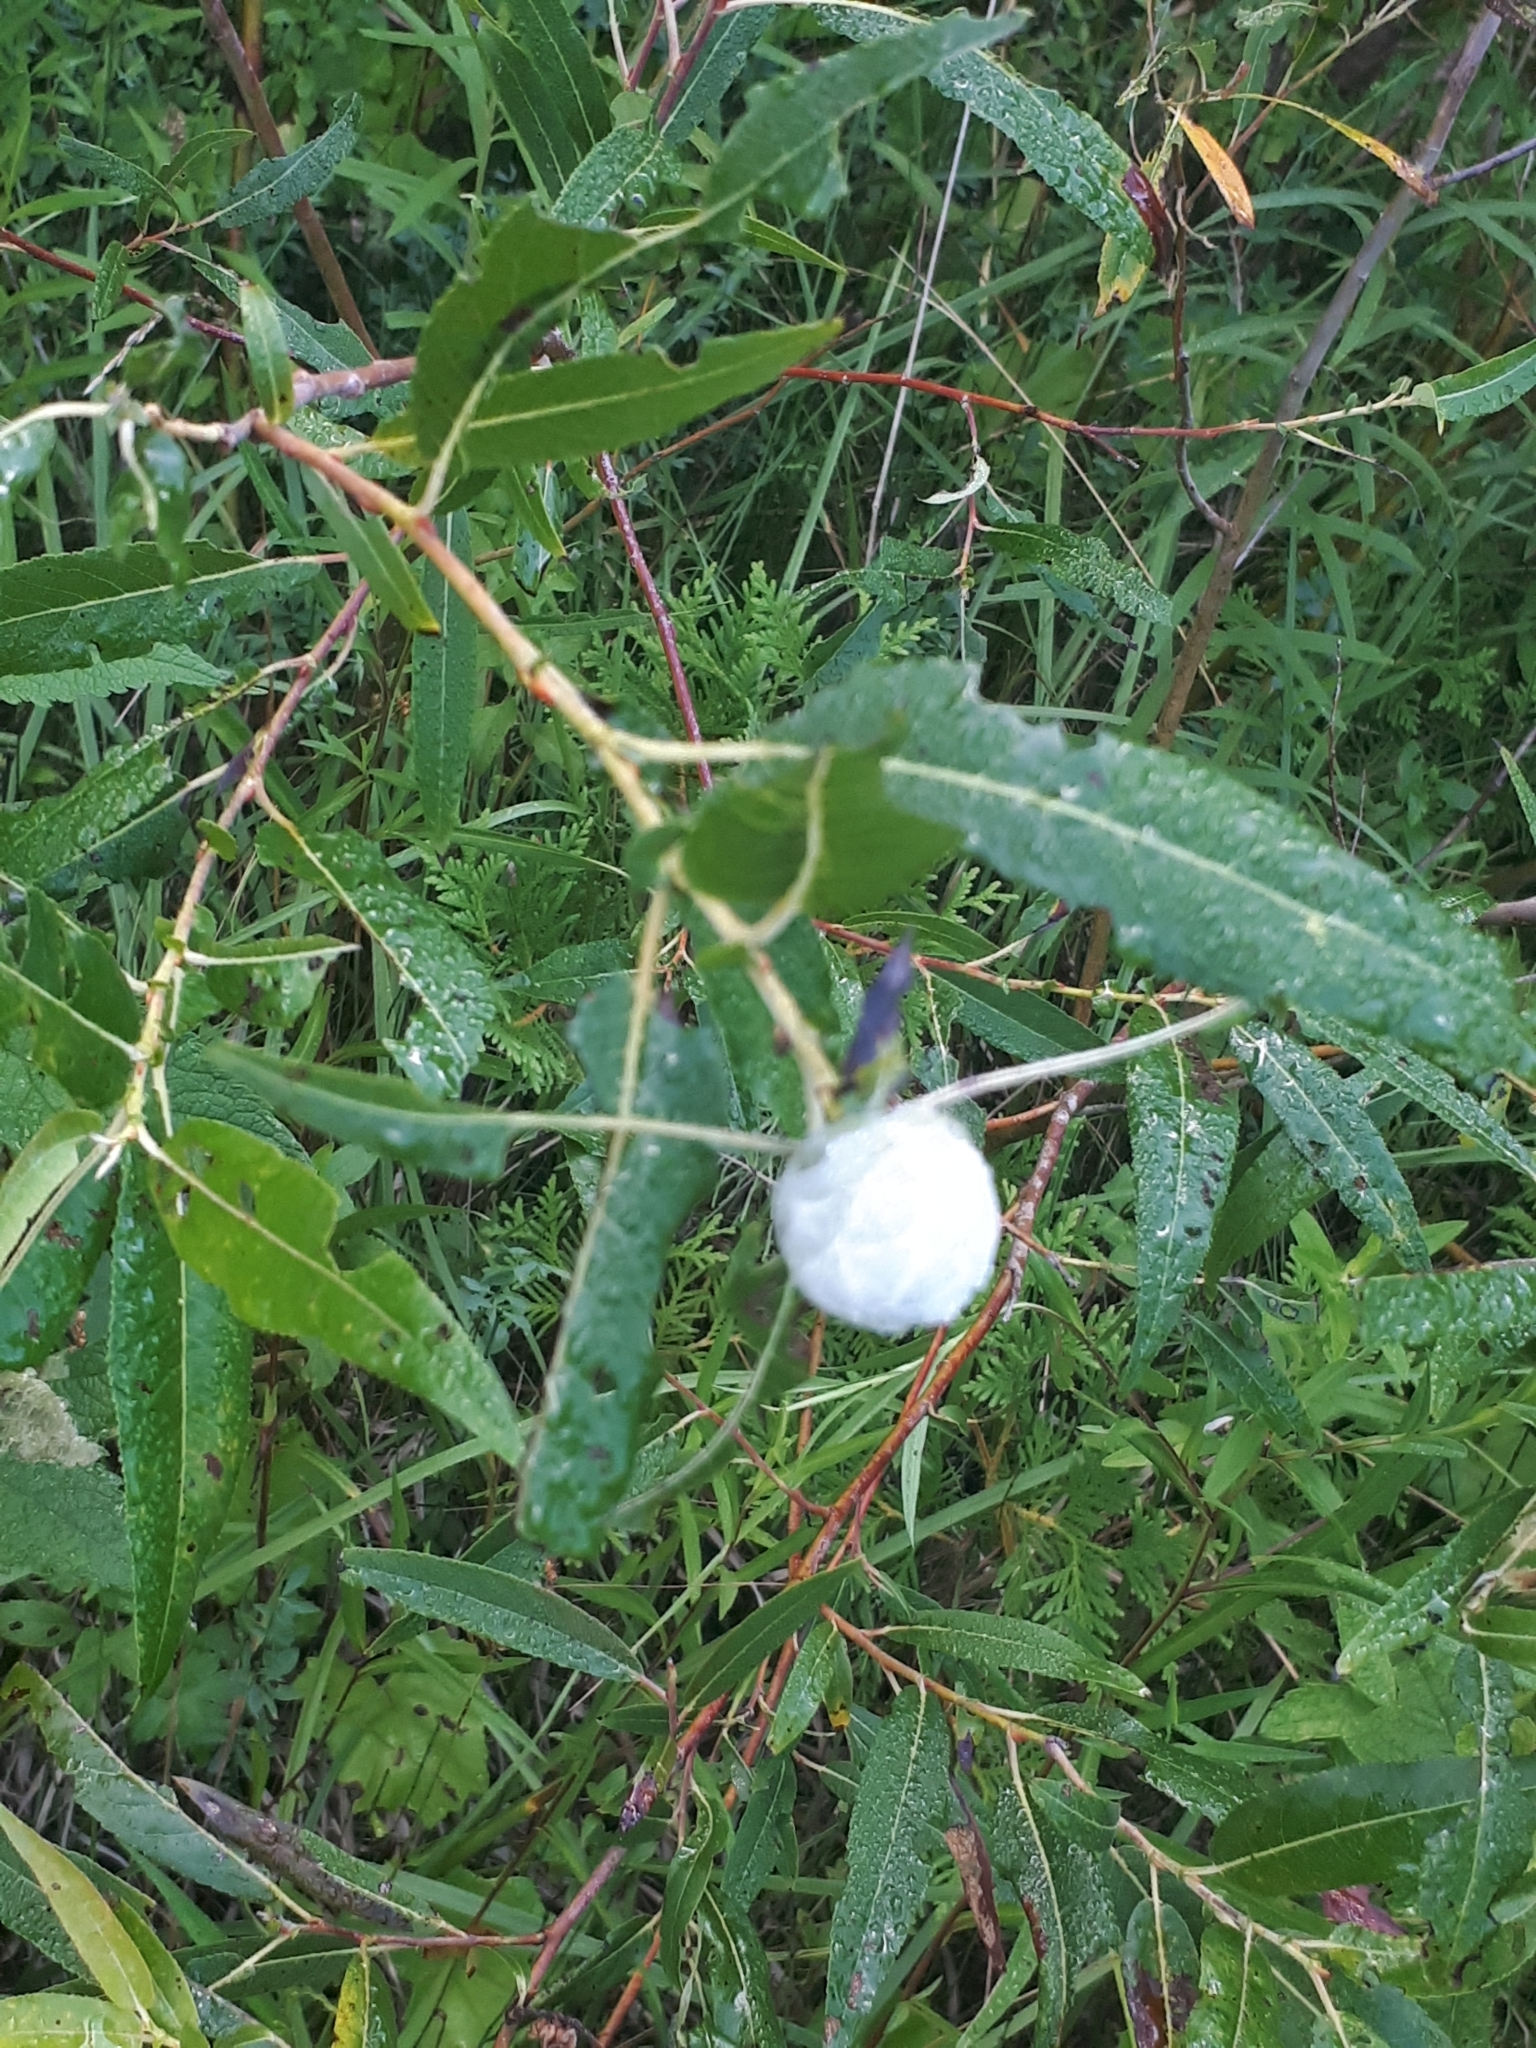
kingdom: Animalia
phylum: Arthropoda
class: Insecta
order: Diptera
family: Cecidomyiidae
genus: Rabdophaga
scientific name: Rabdophaga strobiloides
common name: Willow pinecone gall midge
